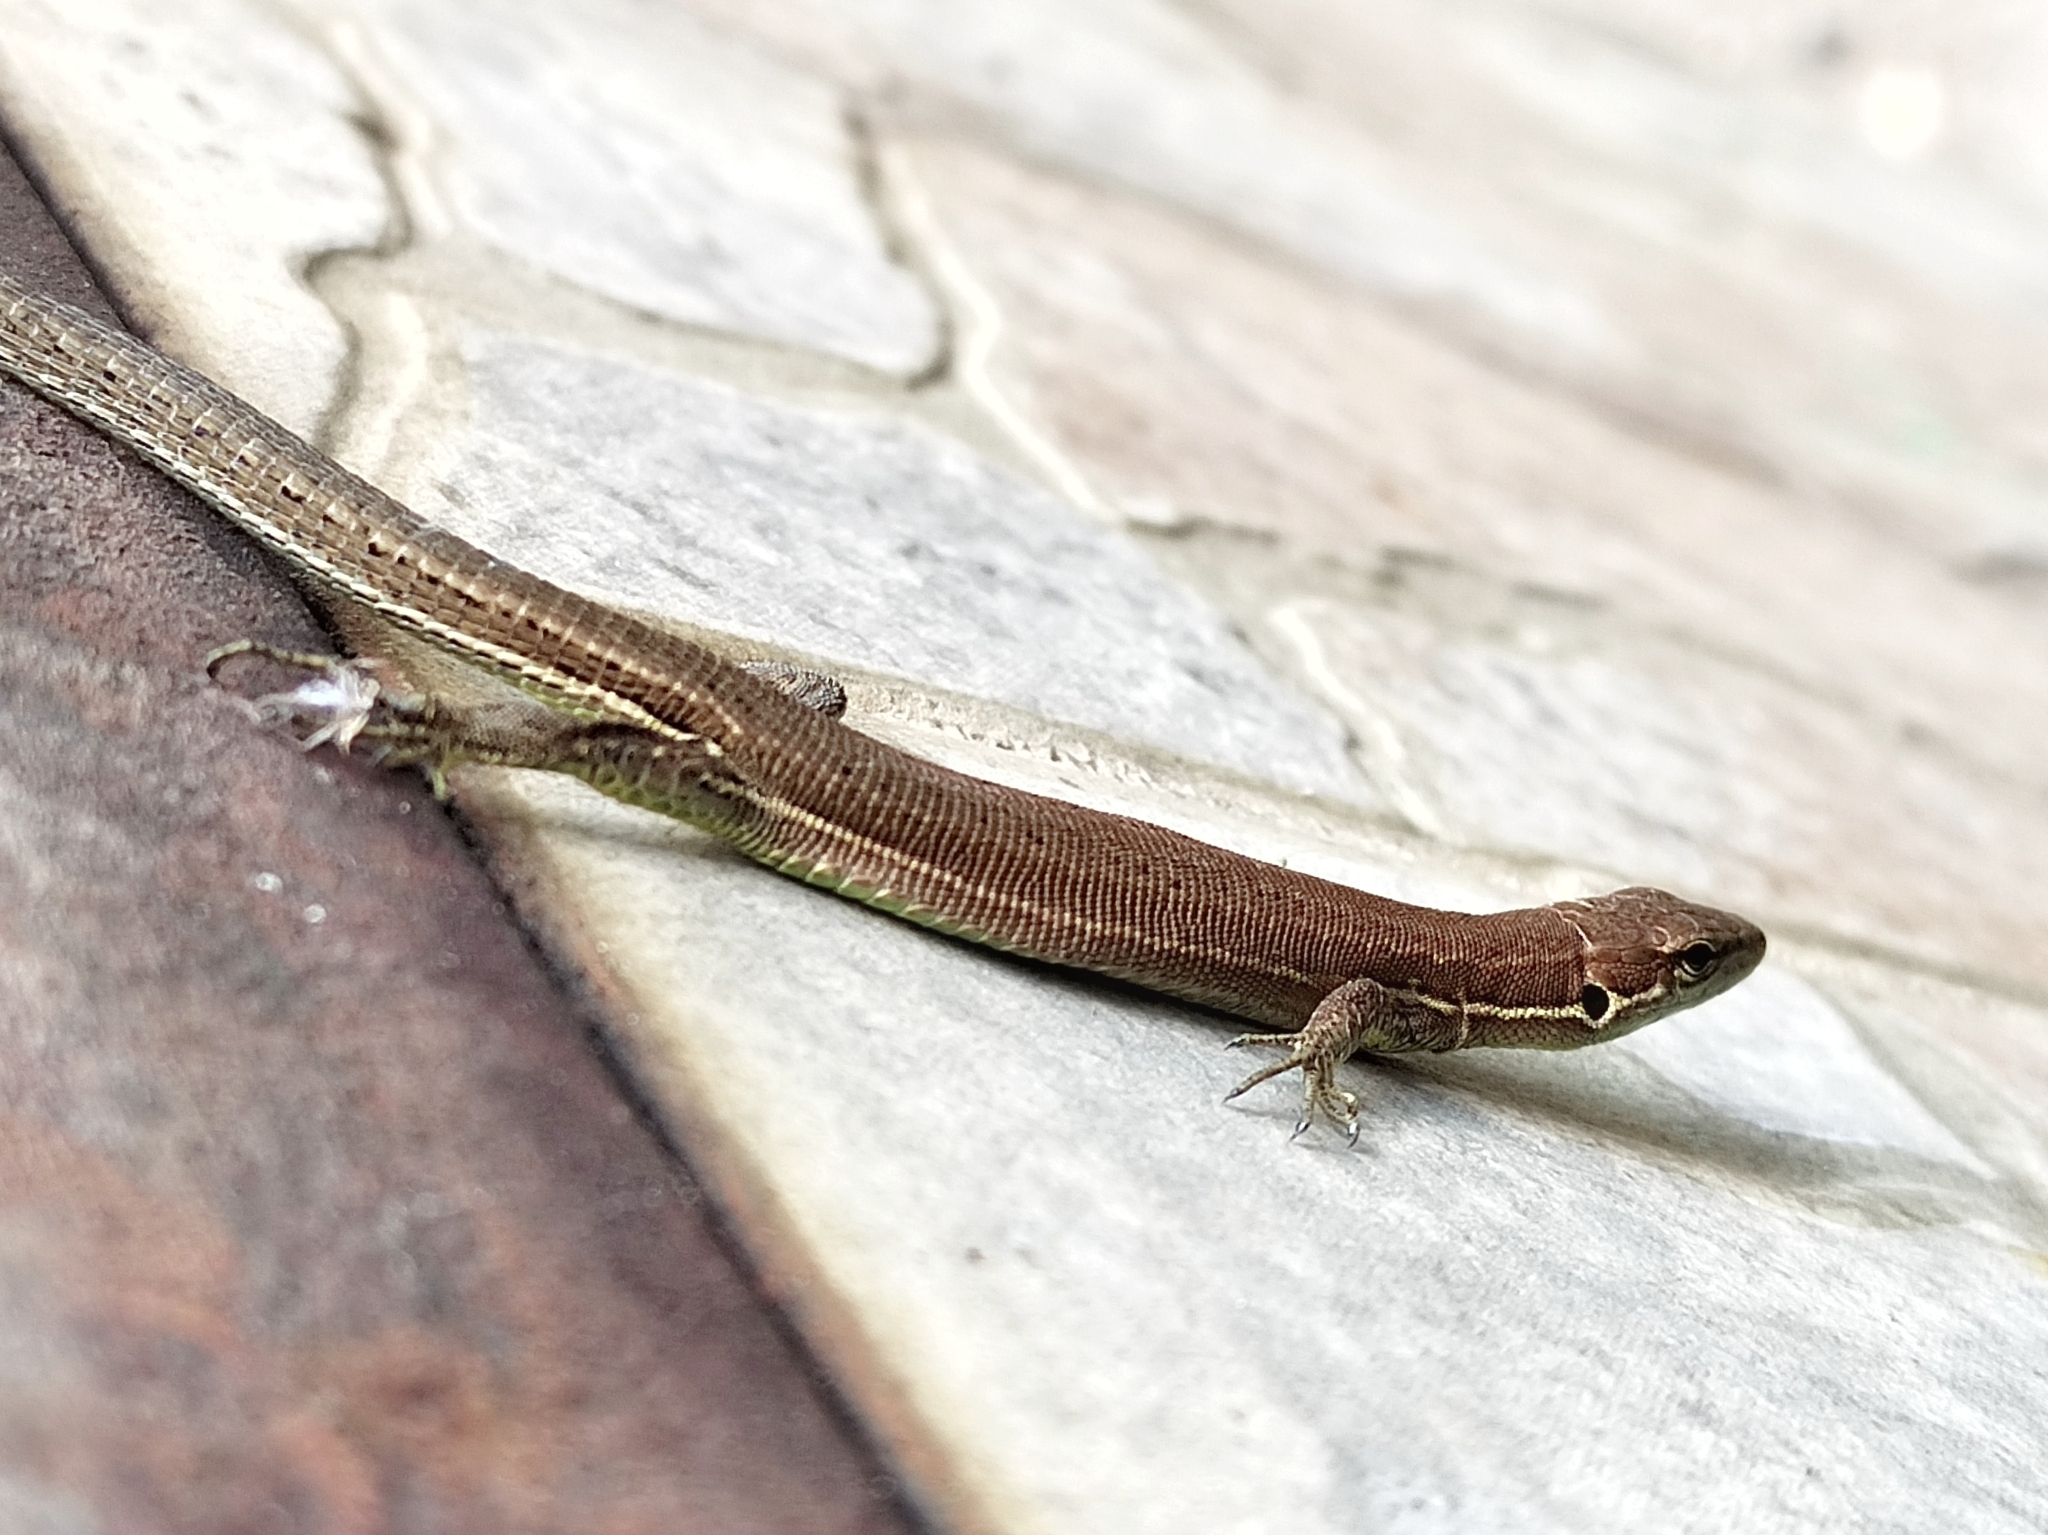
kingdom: Animalia
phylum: Chordata
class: Squamata
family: Lacertidae
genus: Darevskia
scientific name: Darevskia praticola
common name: Meadow lizard
